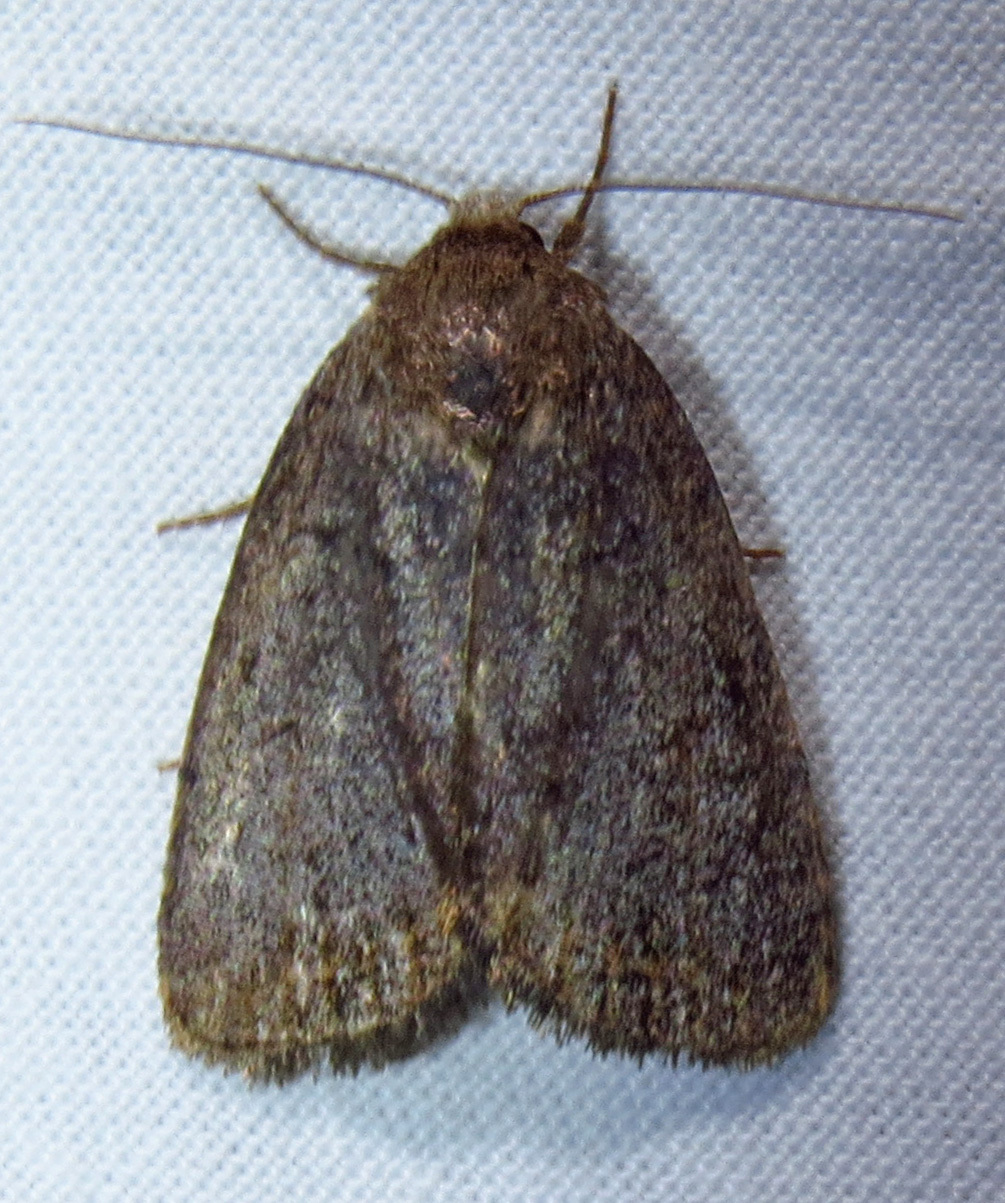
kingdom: Animalia
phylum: Arthropoda
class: Insecta
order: Lepidoptera
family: Noctuidae
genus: Athetis
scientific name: Athetis tarda
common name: Slowpoke moth
